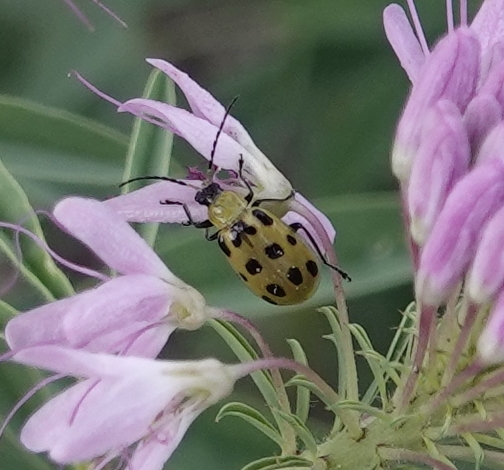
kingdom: Animalia
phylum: Arthropoda
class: Insecta
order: Coleoptera
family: Chrysomelidae
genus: Diabrotica
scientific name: Diabrotica undecimpunctata
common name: Spotted cucumber beetle
